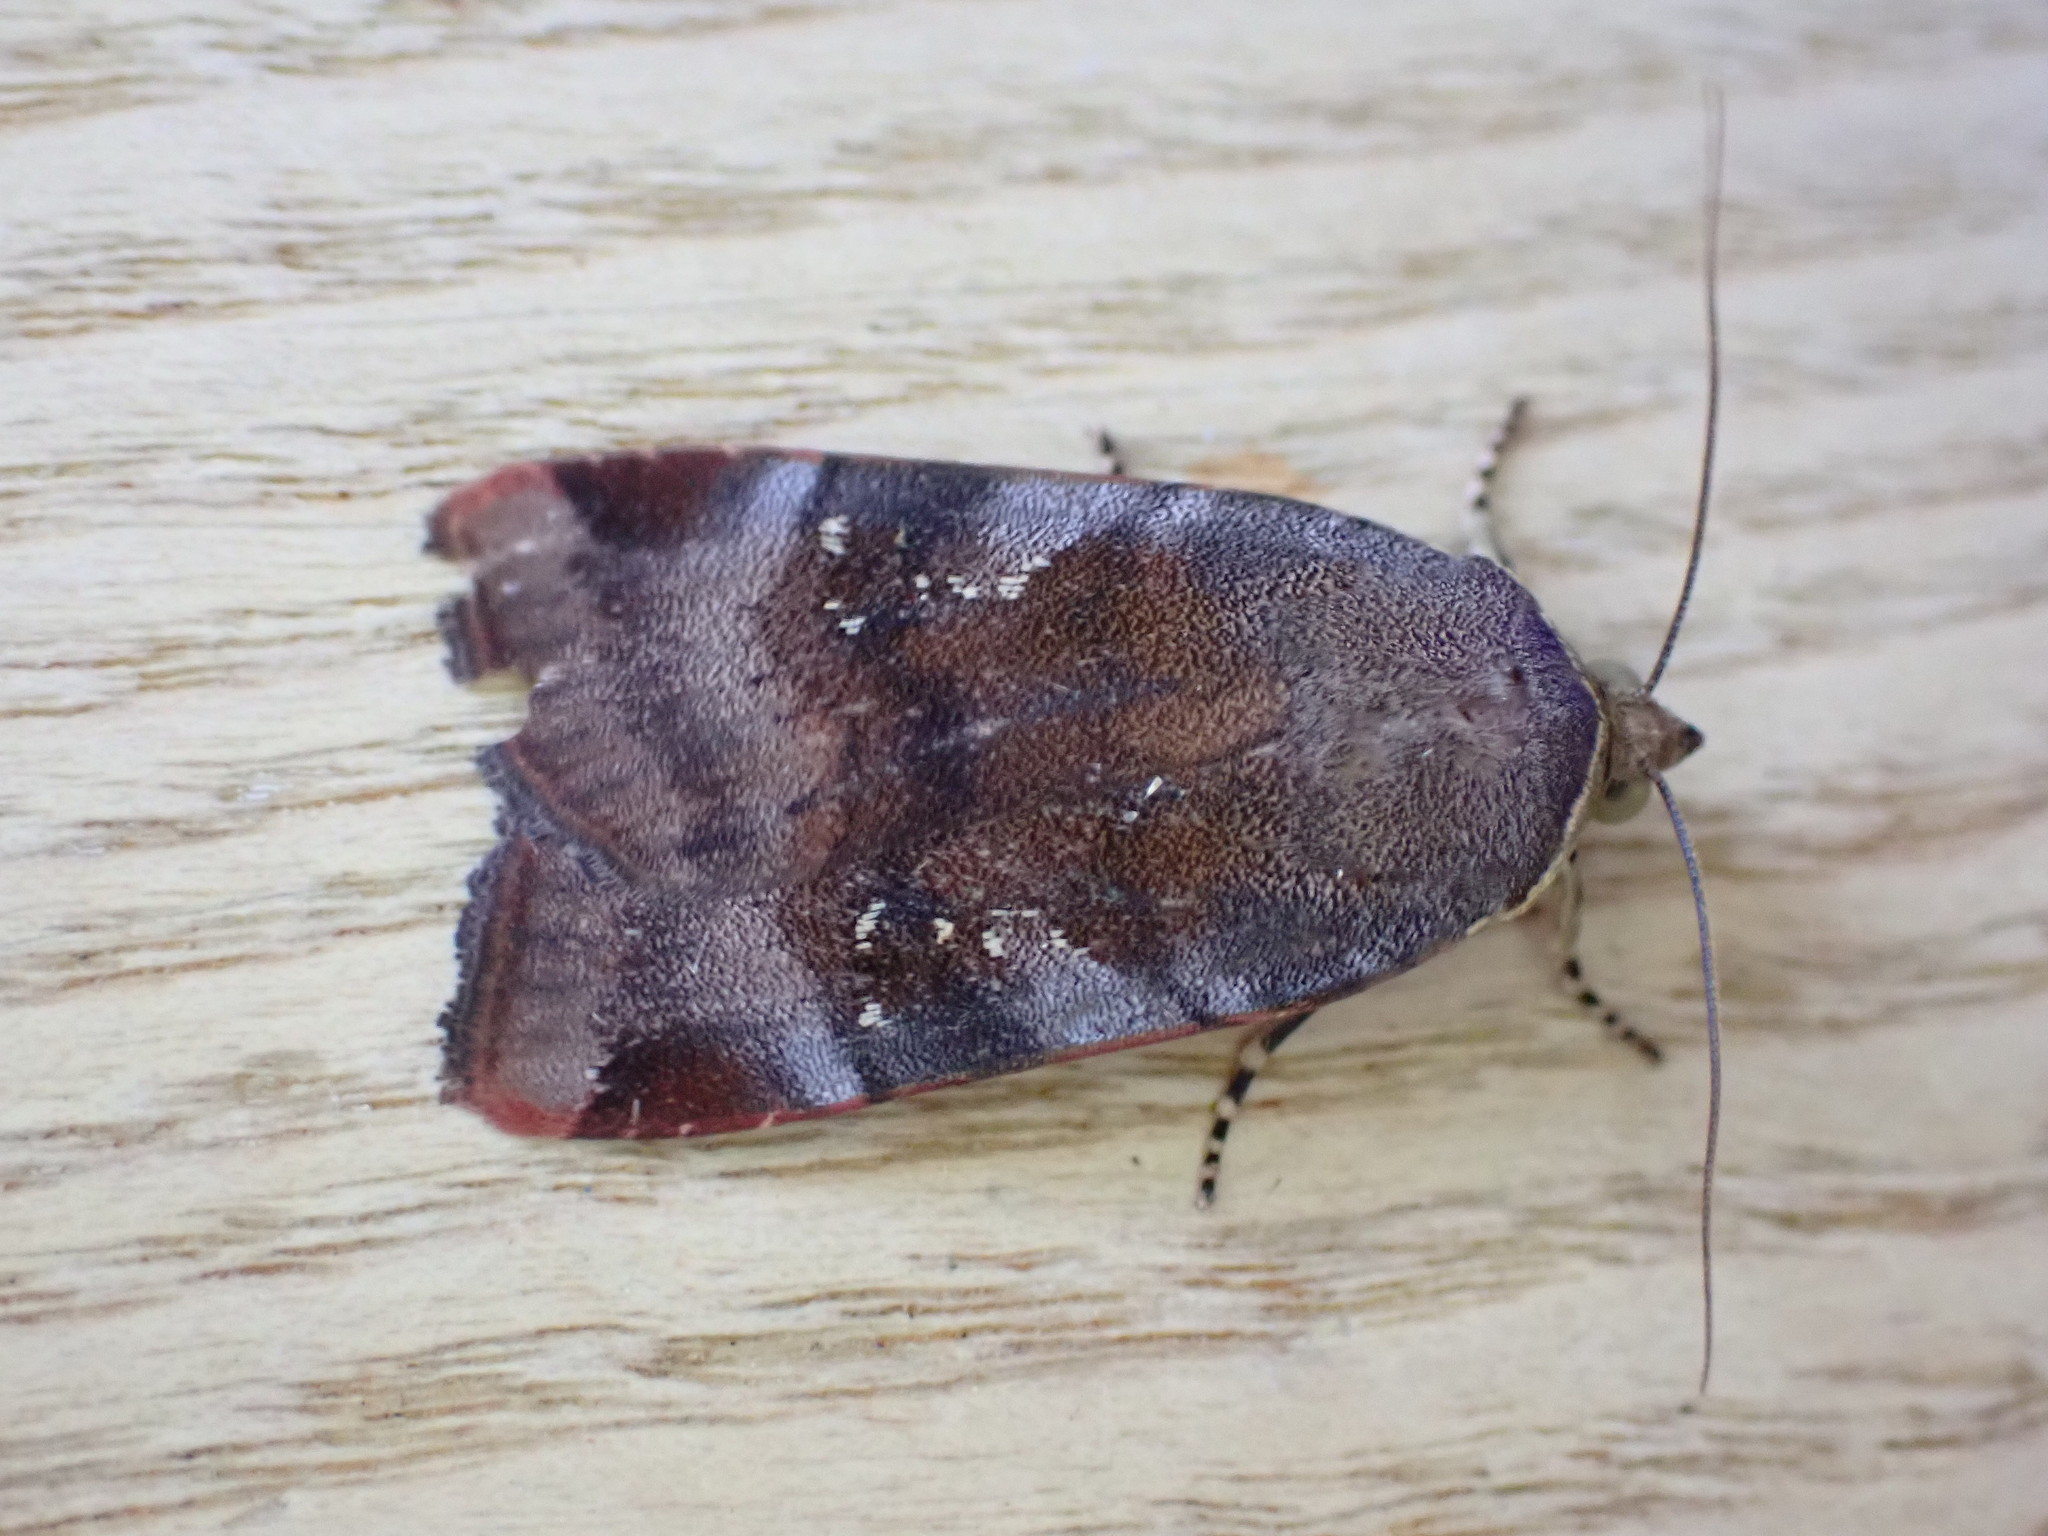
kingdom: Animalia
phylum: Arthropoda
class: Insecta
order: Lepidoptera
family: Noctuidae
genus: Noctua
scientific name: Noctua janthe
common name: Lesser broad-bordered yellow underwing
